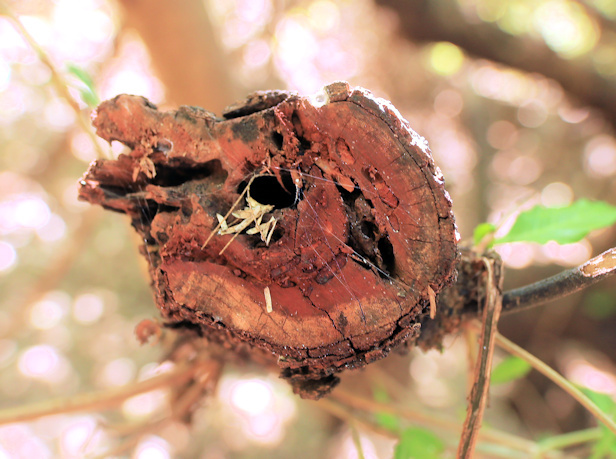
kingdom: Plantae
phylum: Tracheophyta
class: Magnoliopsida
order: Sapindales
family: Anacardiaceae
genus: Searsia
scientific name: Searsia gueinzii
